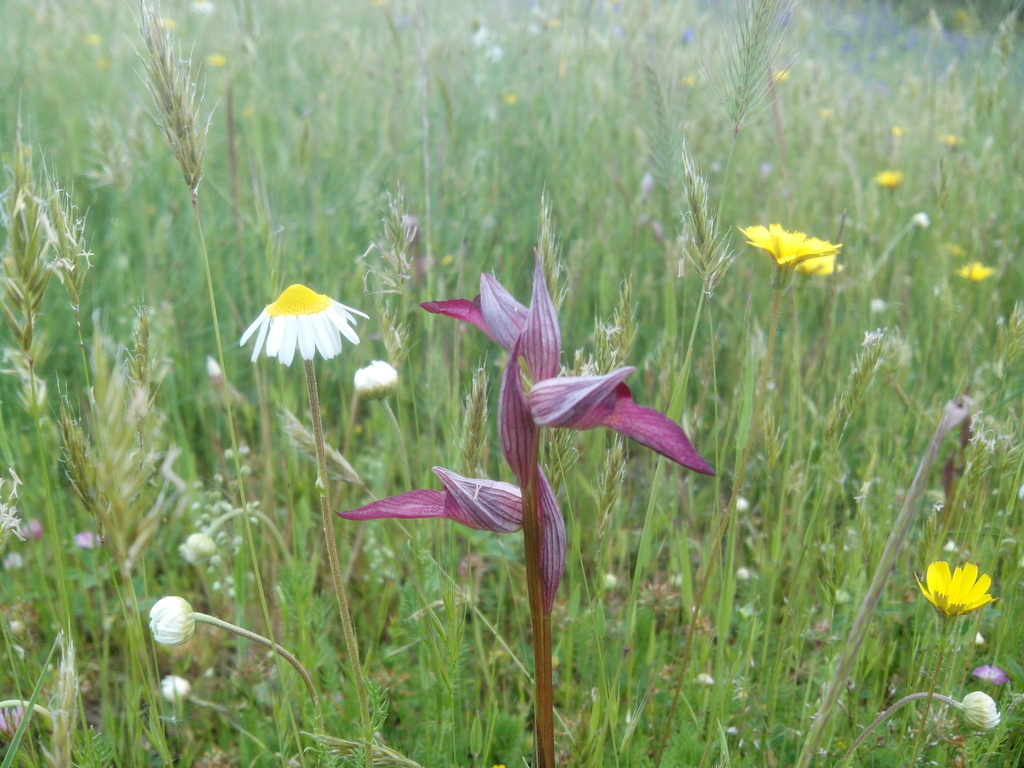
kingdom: Plantae
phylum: Tracheophyta
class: Liliopsida
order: Asparagales
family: Orchidaceae
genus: Serapias
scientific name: Serapias lingua
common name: Tongue-orchid
